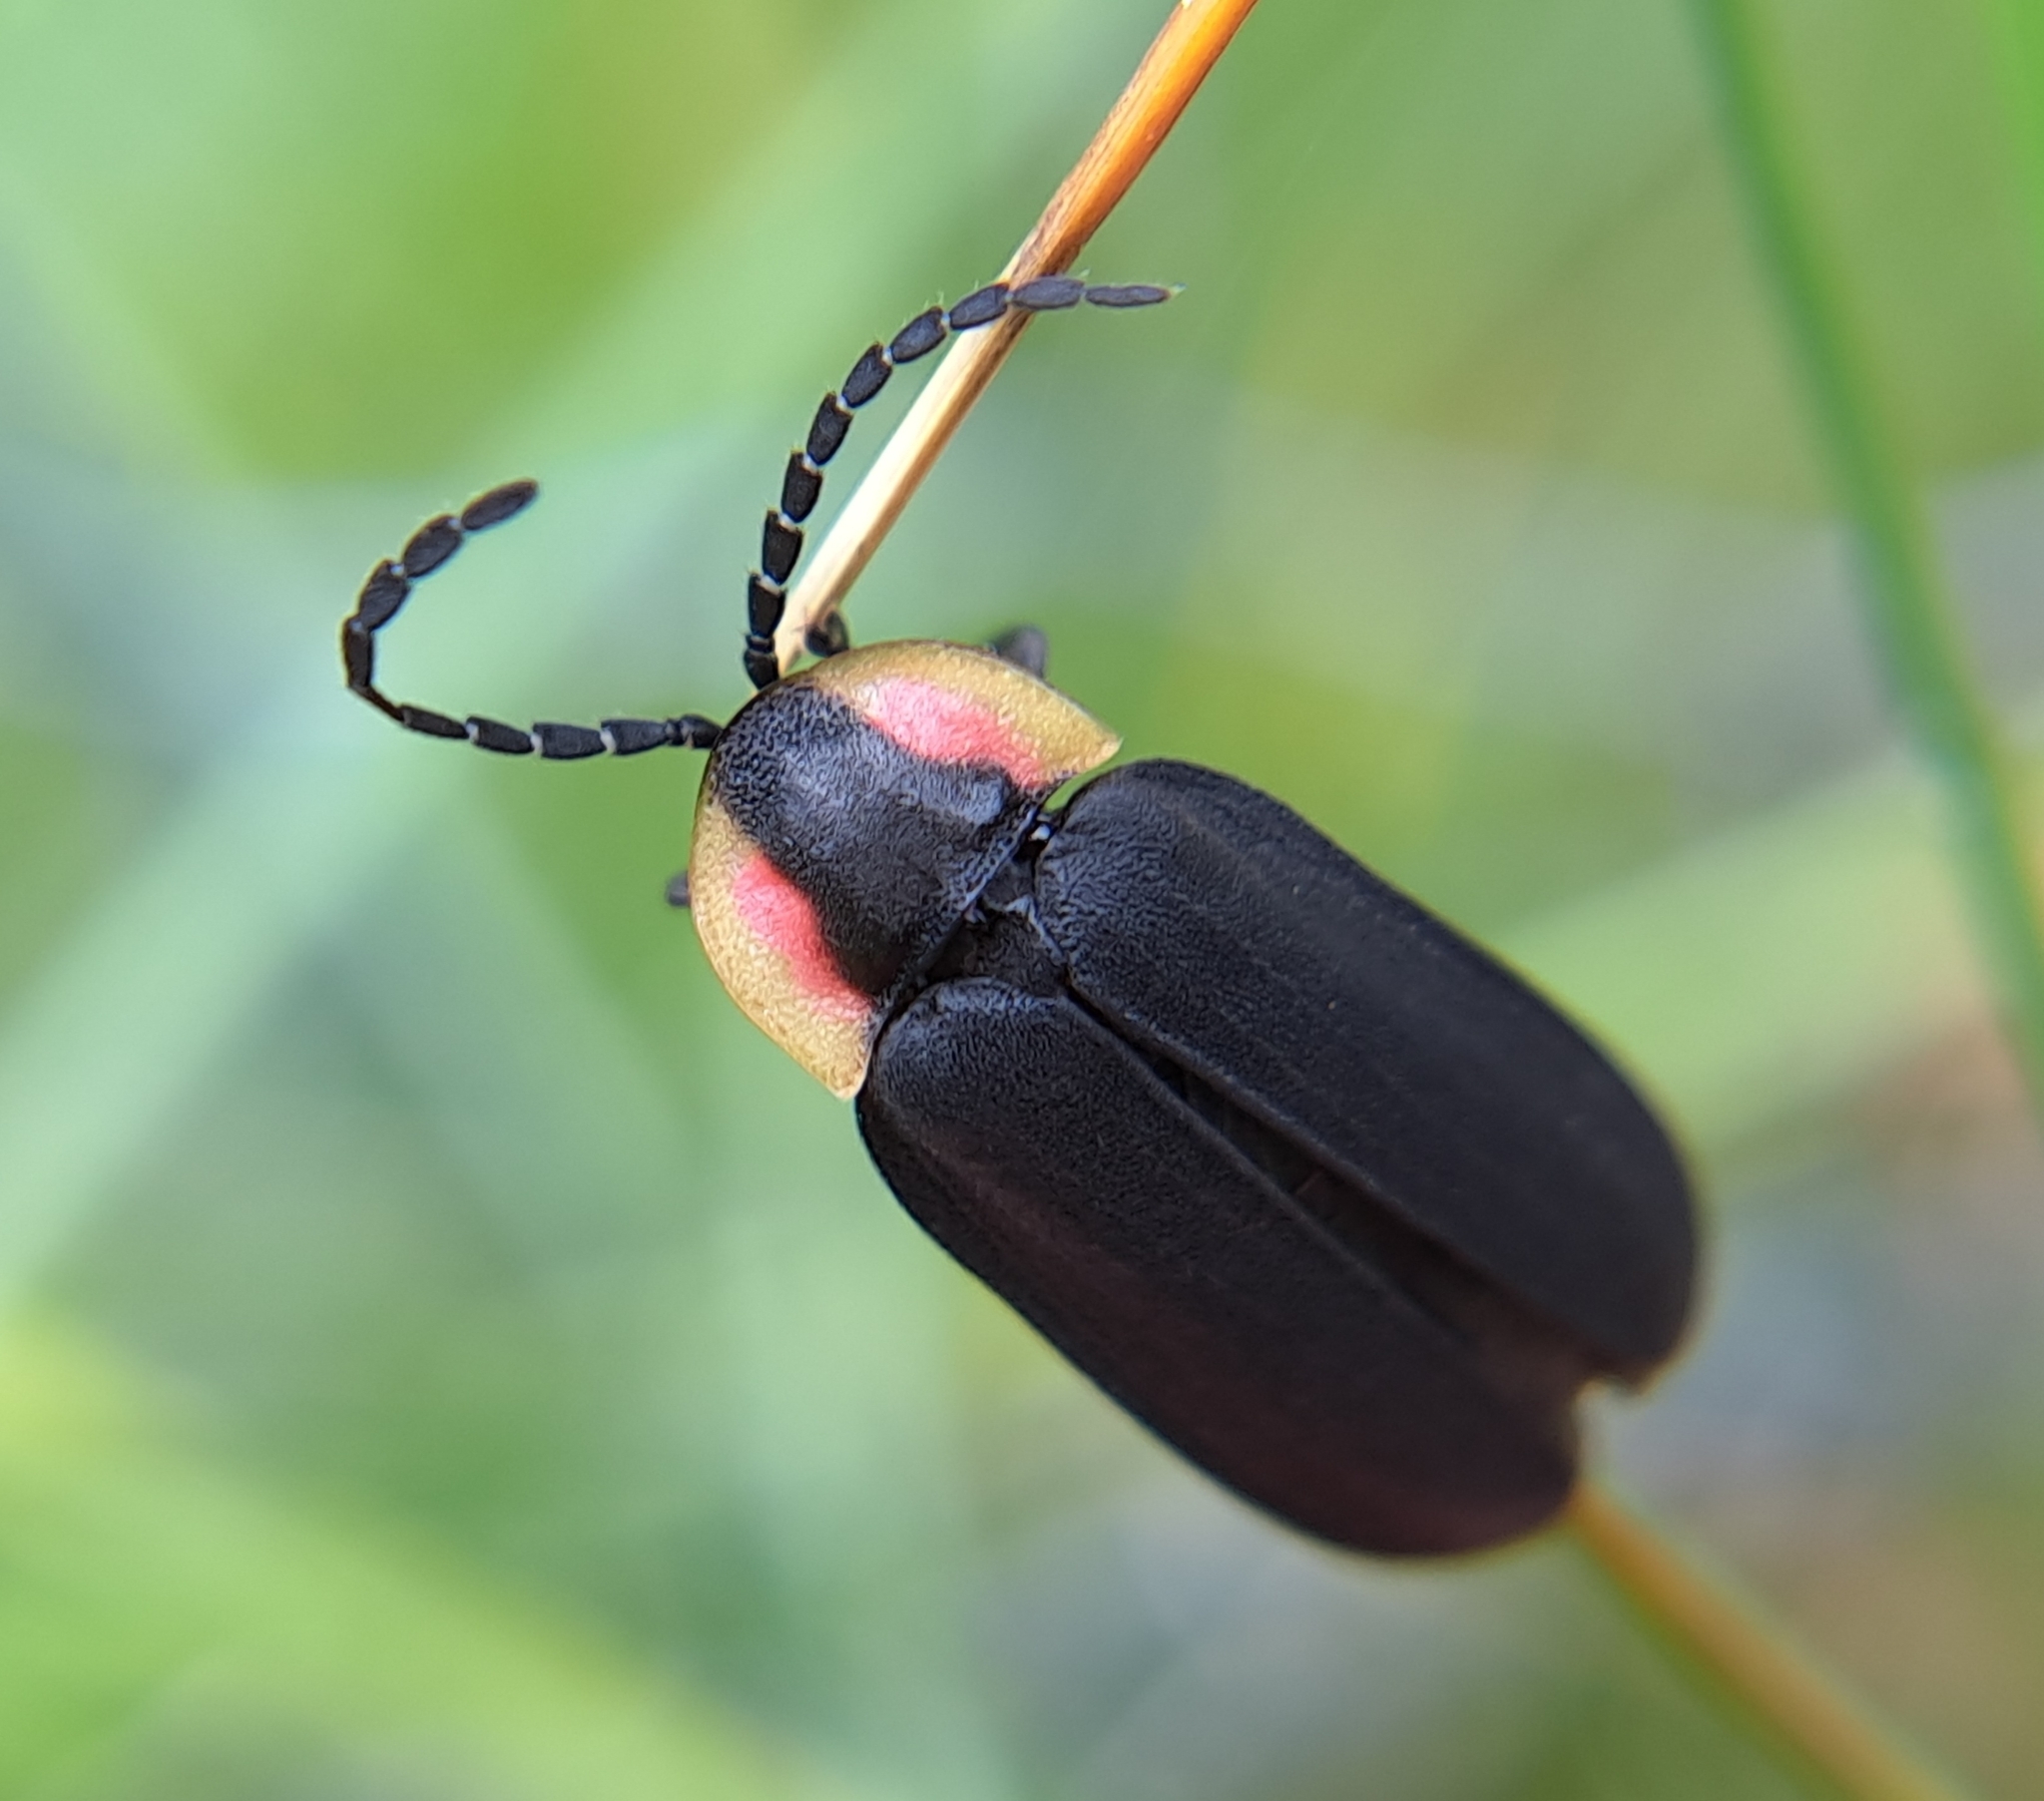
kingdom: Animalia
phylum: Arthropoda
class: Insecta
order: Coleoptera
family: Lampyridae
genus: Lucidota
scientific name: Lucidota atra
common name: Black firefly
